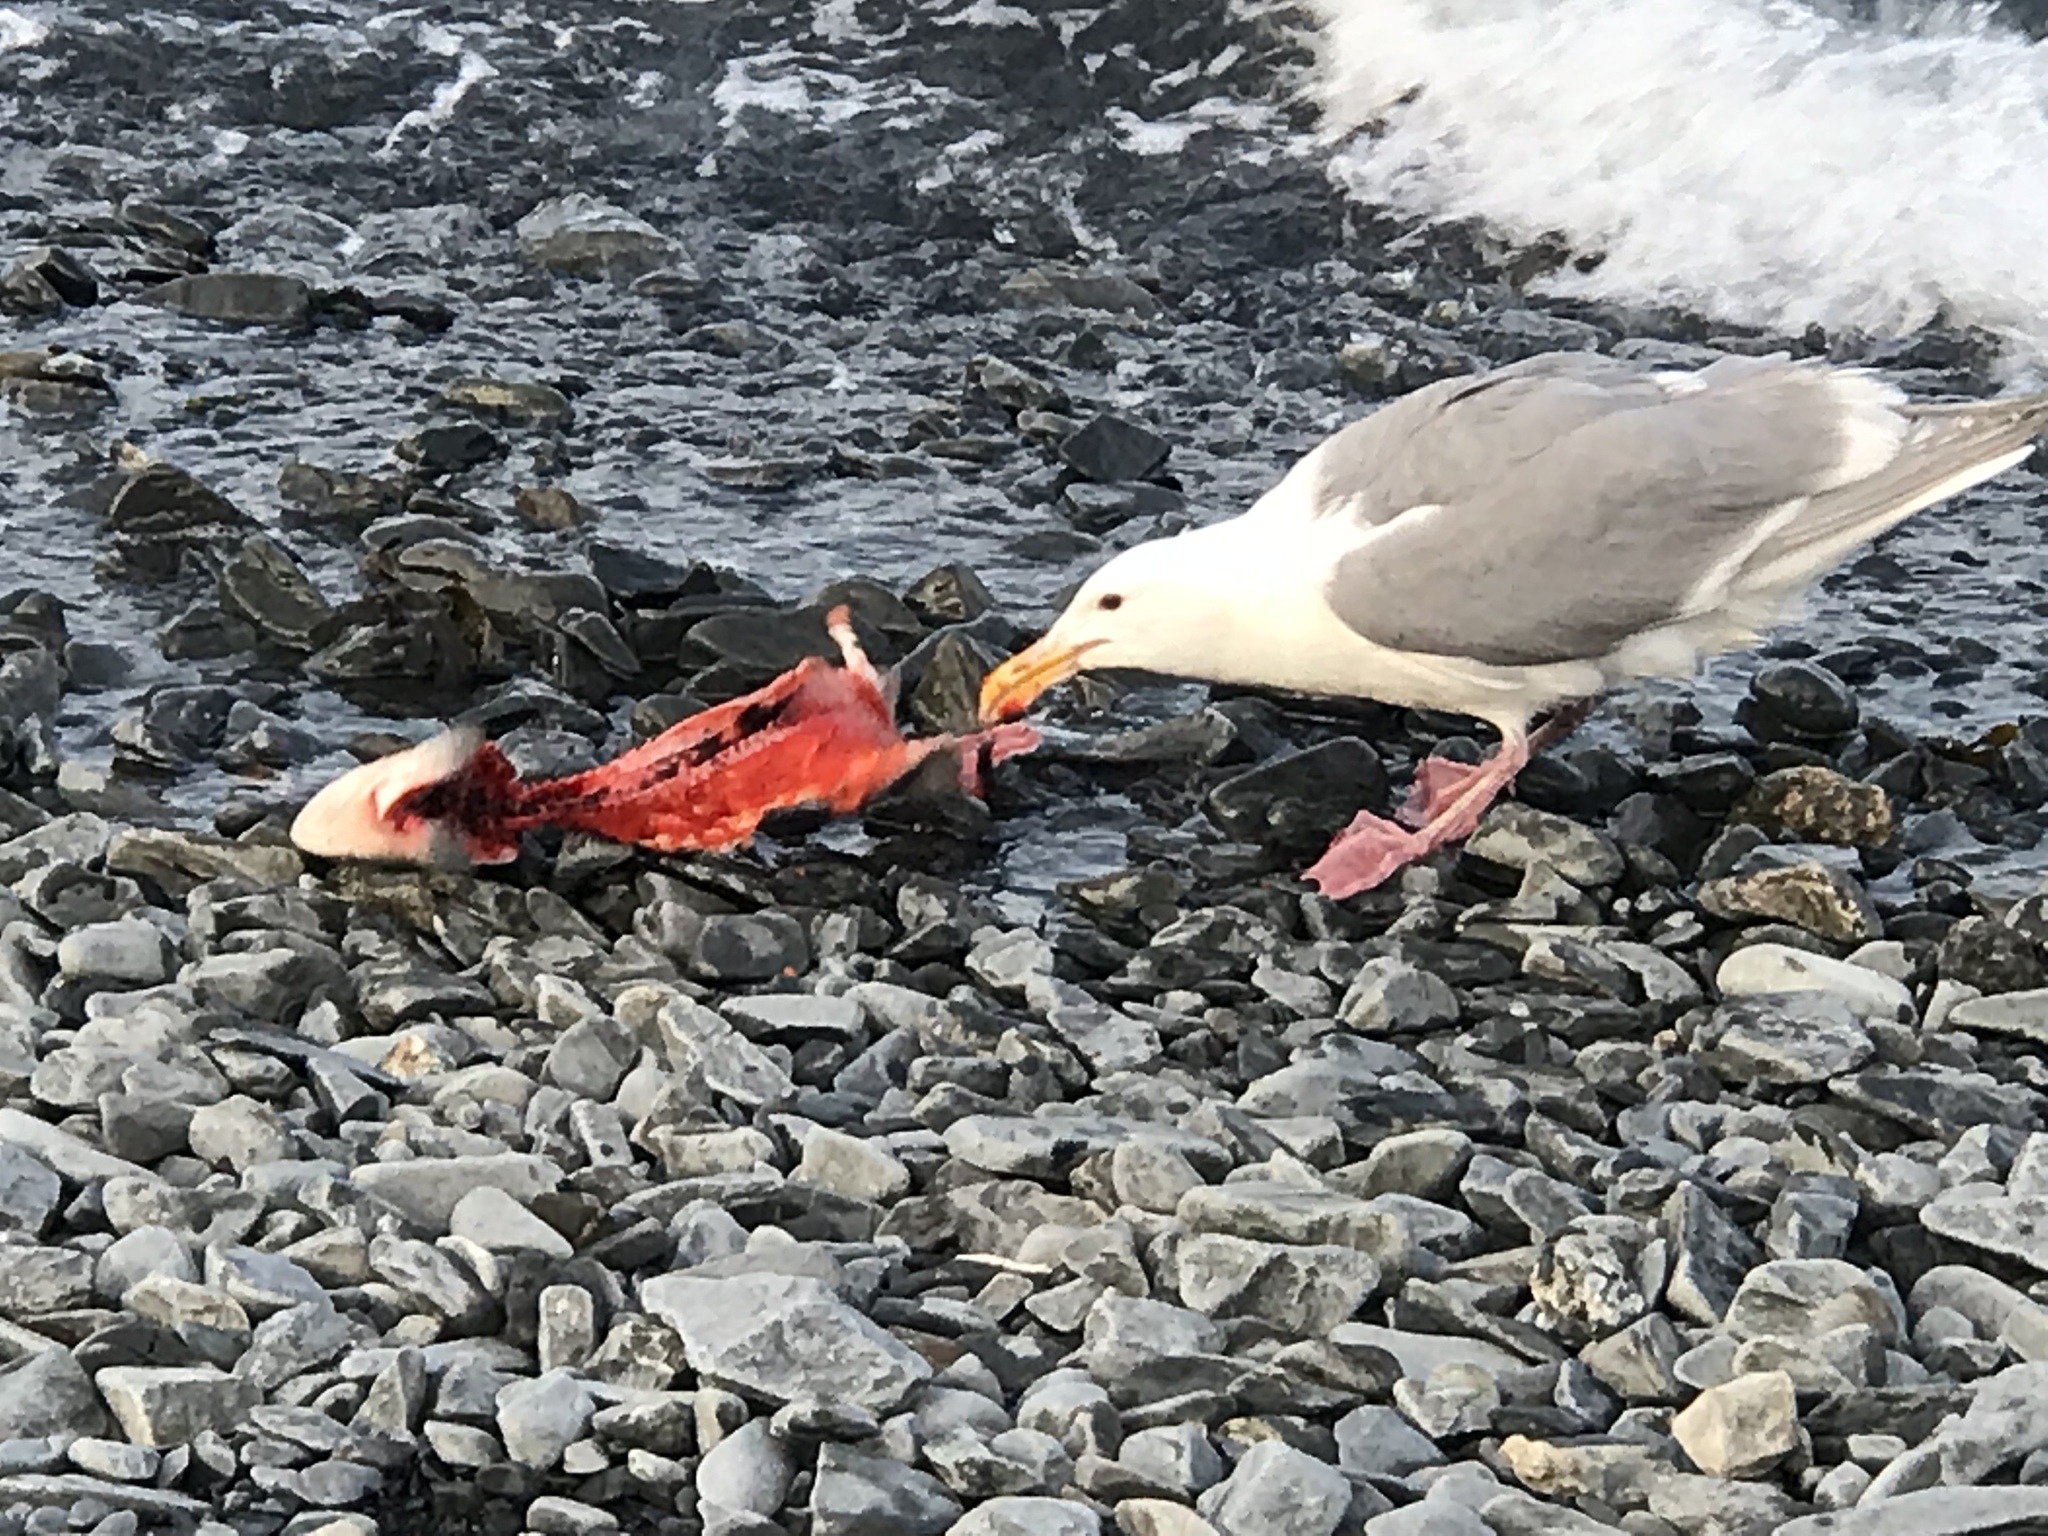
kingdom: Animalia
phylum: Chordata
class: Aves
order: Charadriiformes
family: Laridae
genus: Larus
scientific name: Larus glaucescens
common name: Glaucous-winged gull
